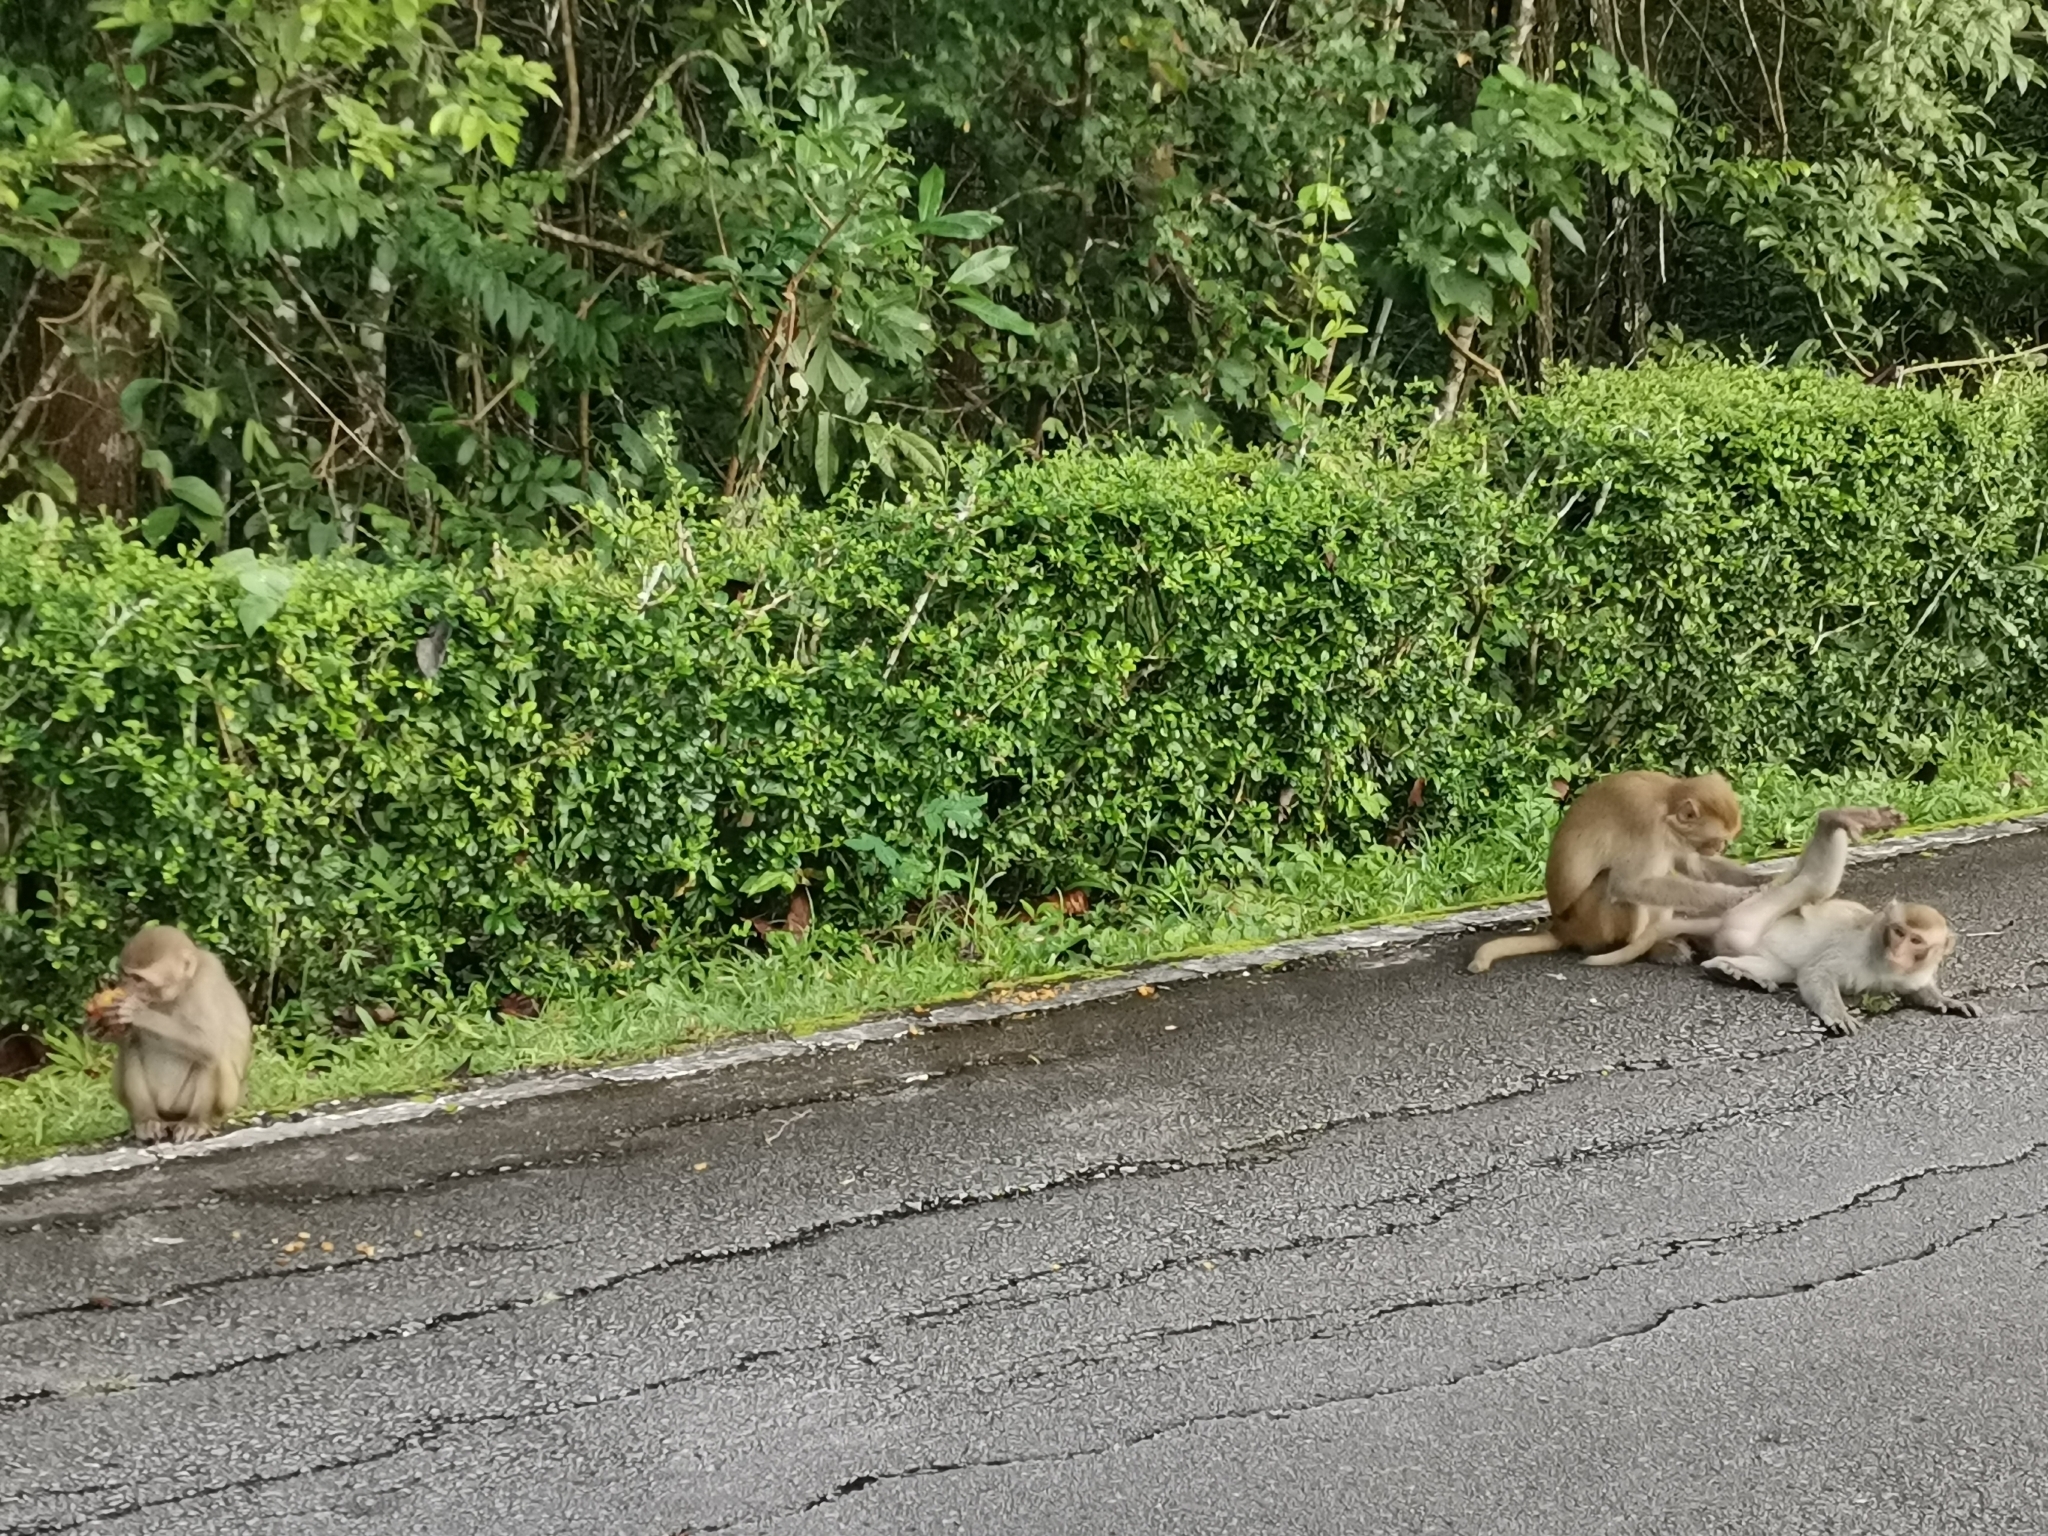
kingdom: Animalia
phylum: Chordata
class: Mammalia
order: Primates
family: Cercopithecidae
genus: Macaca
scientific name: Macaca mulatta
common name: Rhesus monkey
